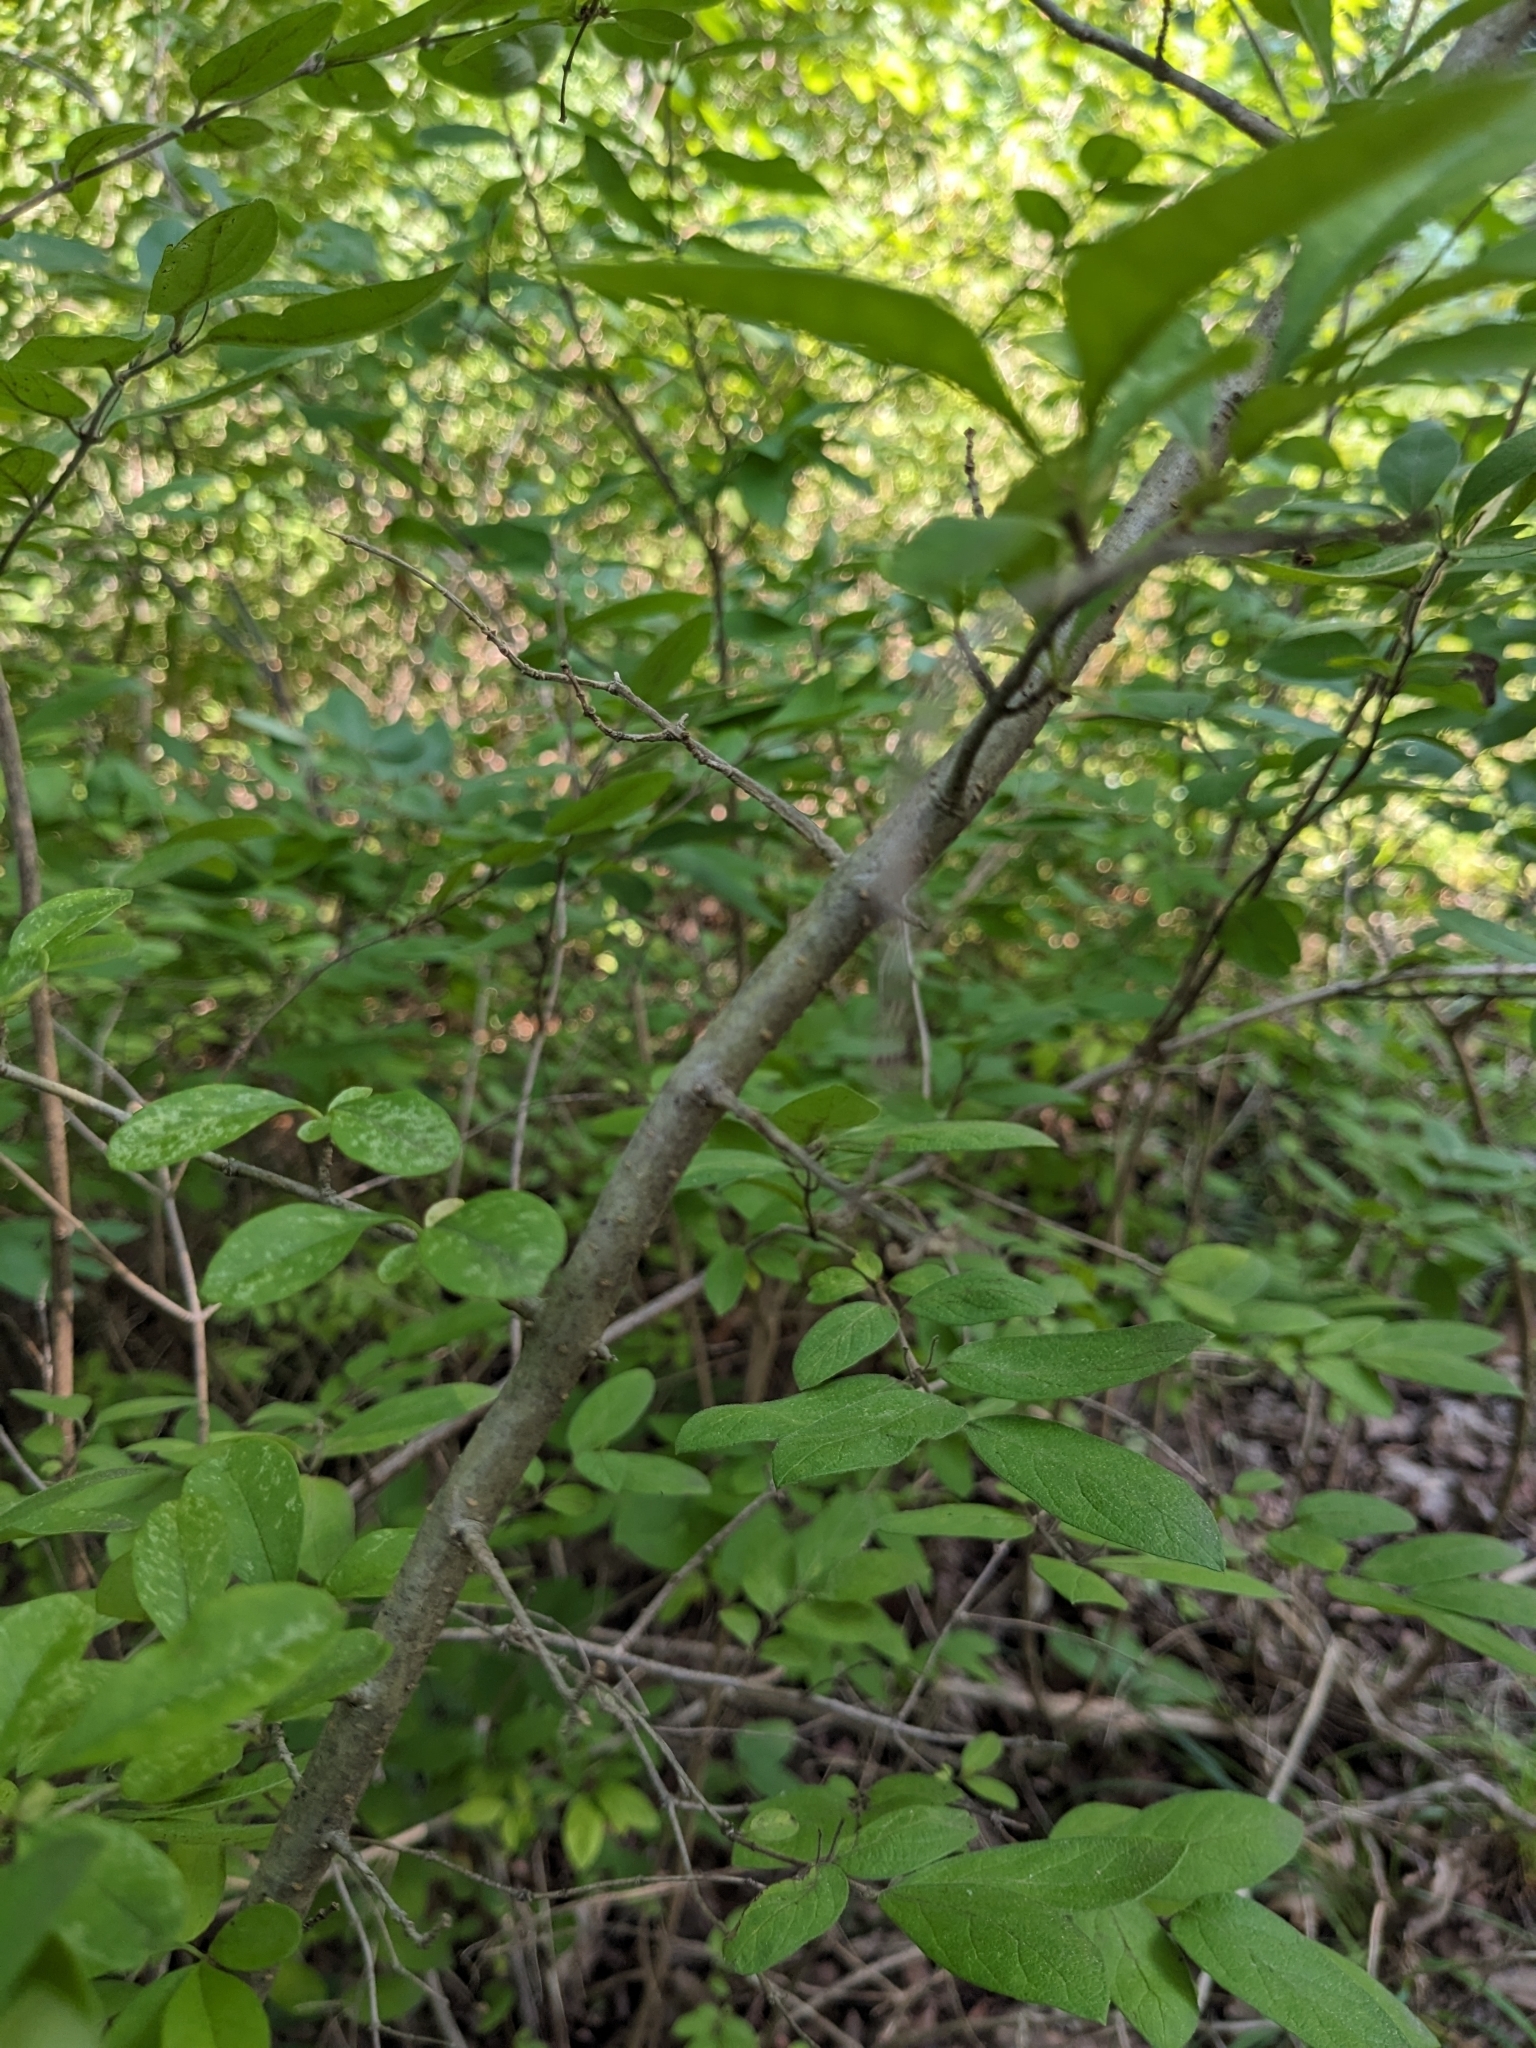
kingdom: Plantae
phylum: Tracheophyta
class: Magnoliopsida
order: Lamiales
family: Oleaceae
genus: Ligustrum
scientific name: Ligustrum obtusifolium
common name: Border privet
